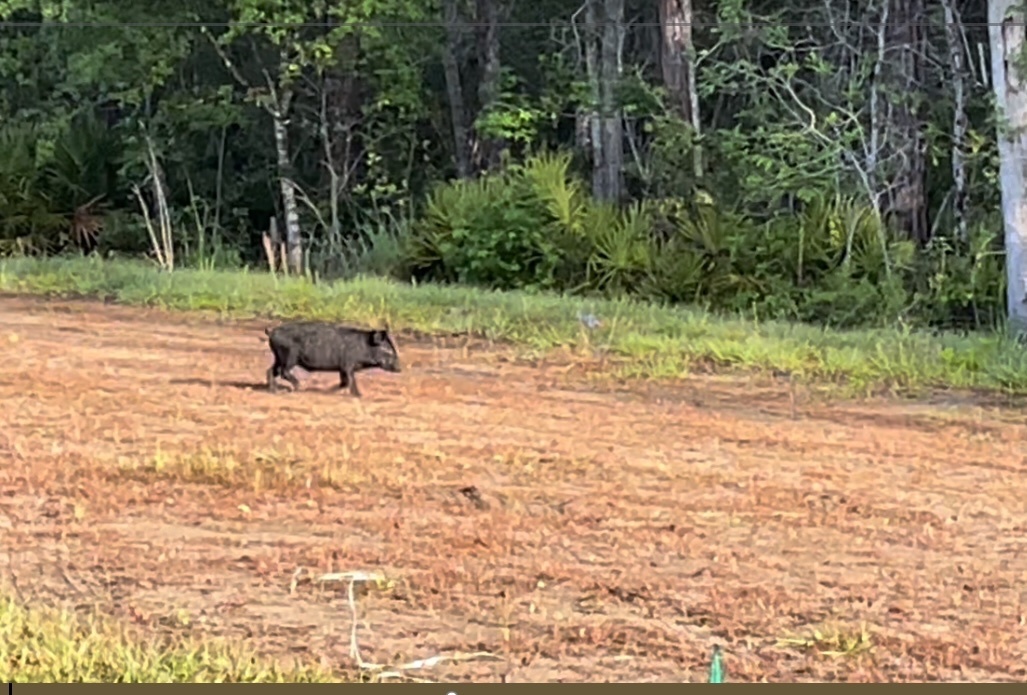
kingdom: Animalia
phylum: Chordata
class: Mammalia
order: Artiodactyla
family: Suidae
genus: Sus
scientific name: Sus scrofa
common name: Wild boar
